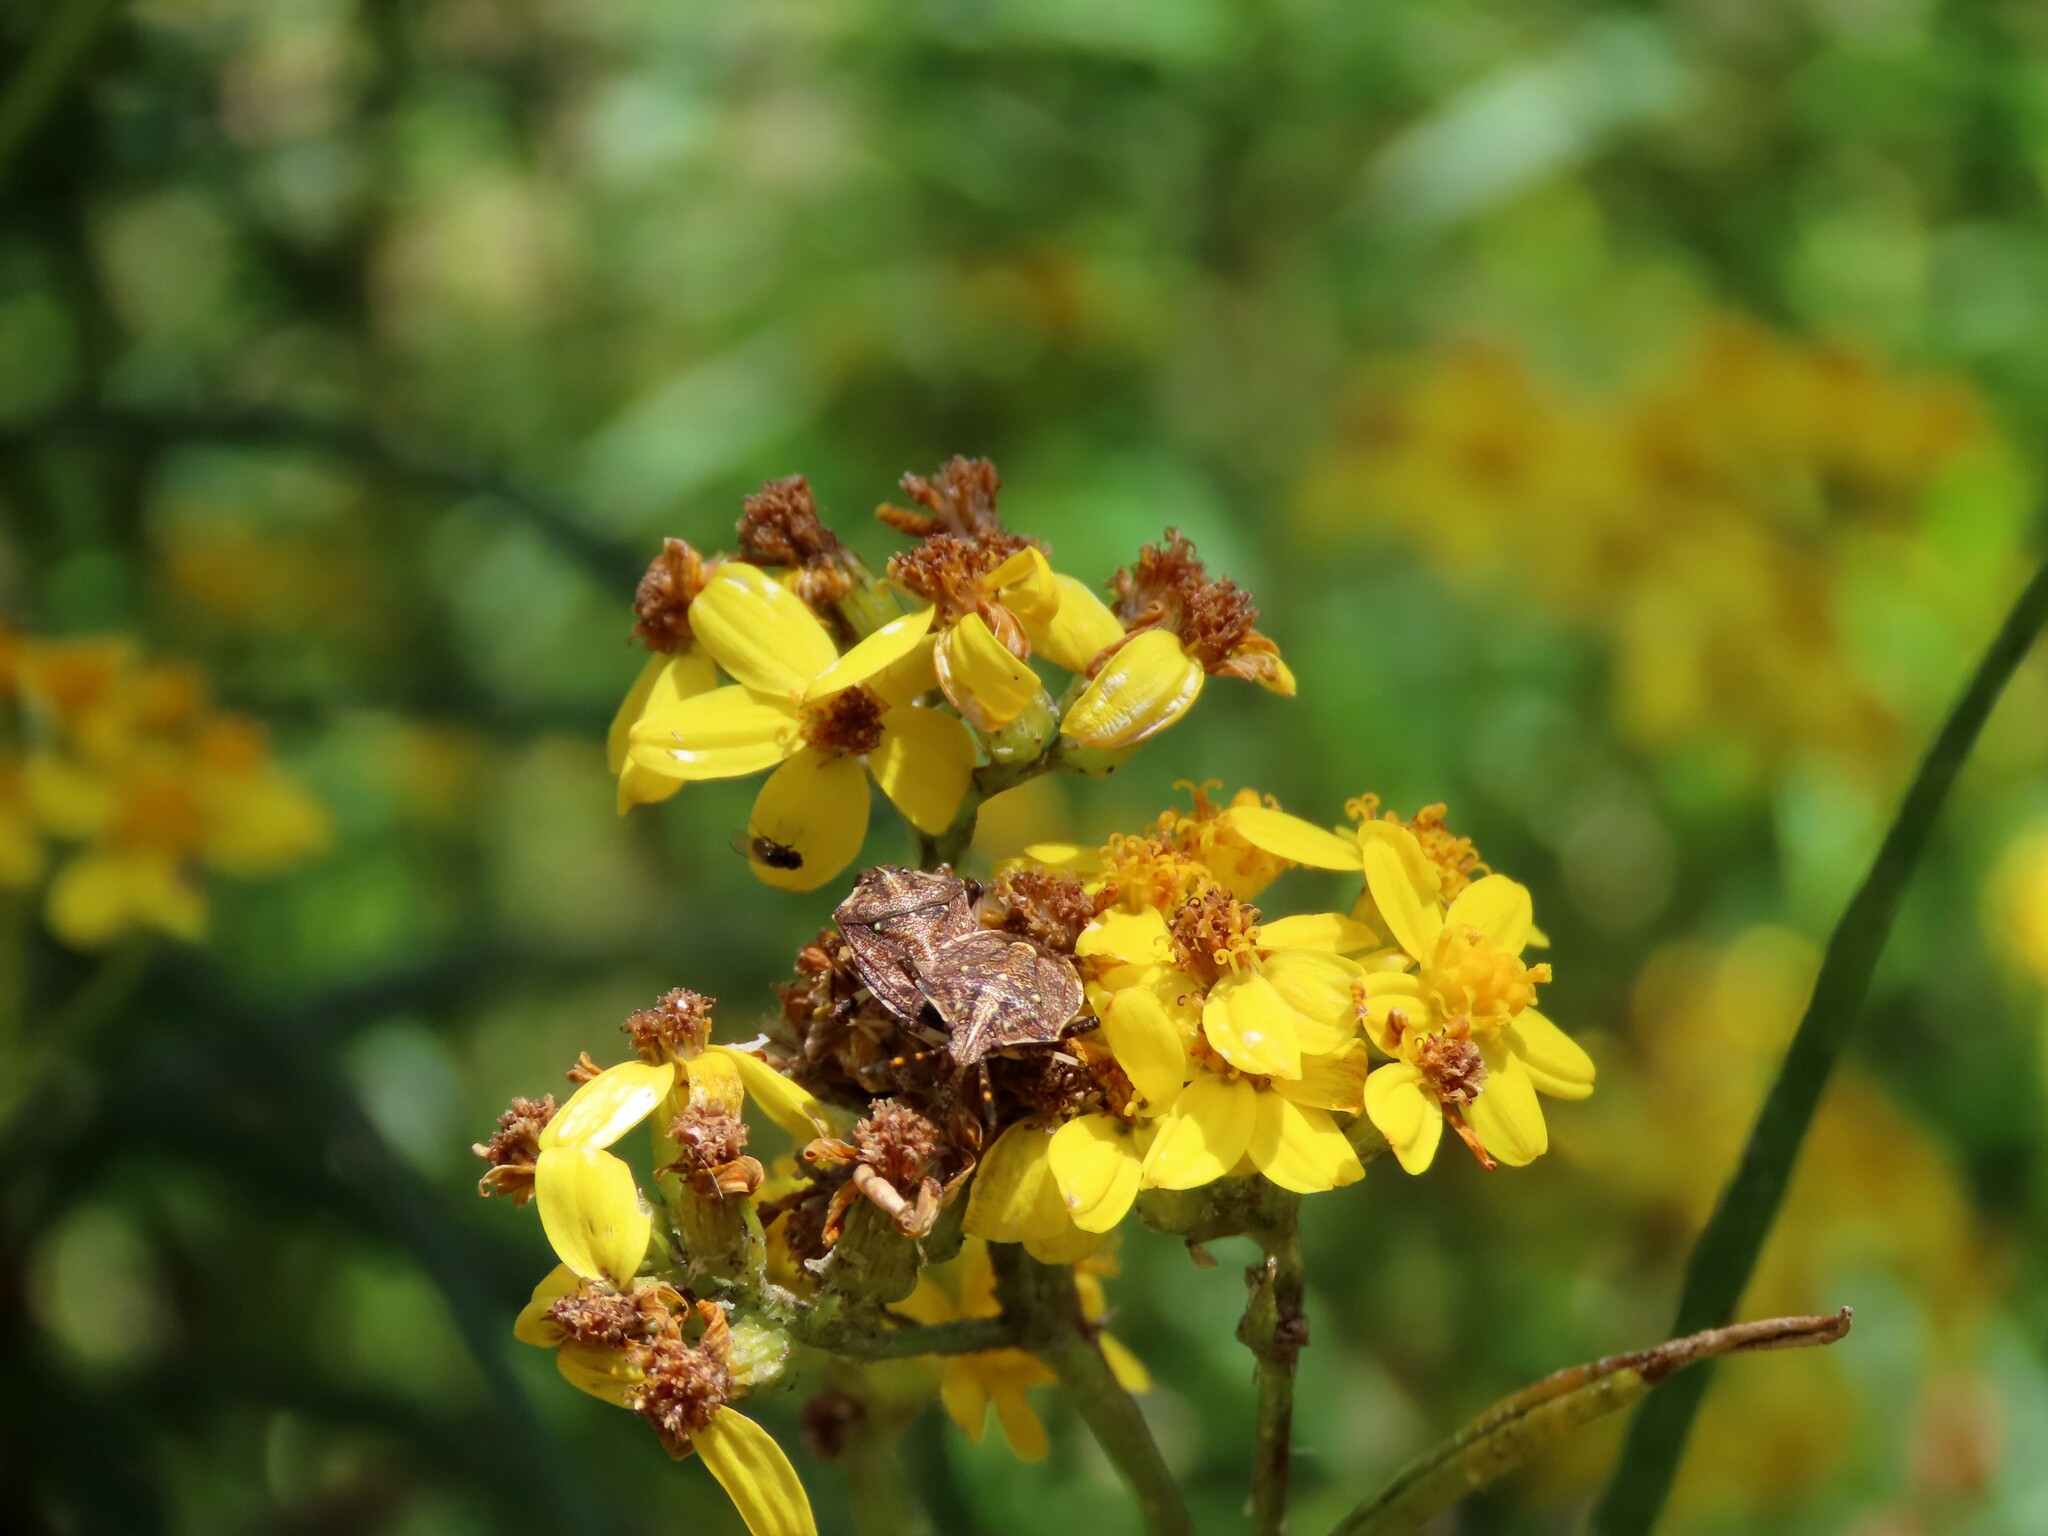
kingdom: Animalia
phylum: Arthropoda
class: Insecta
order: Hemiptera
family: Pentatomidae
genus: Oncocoris
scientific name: Oncocoris
